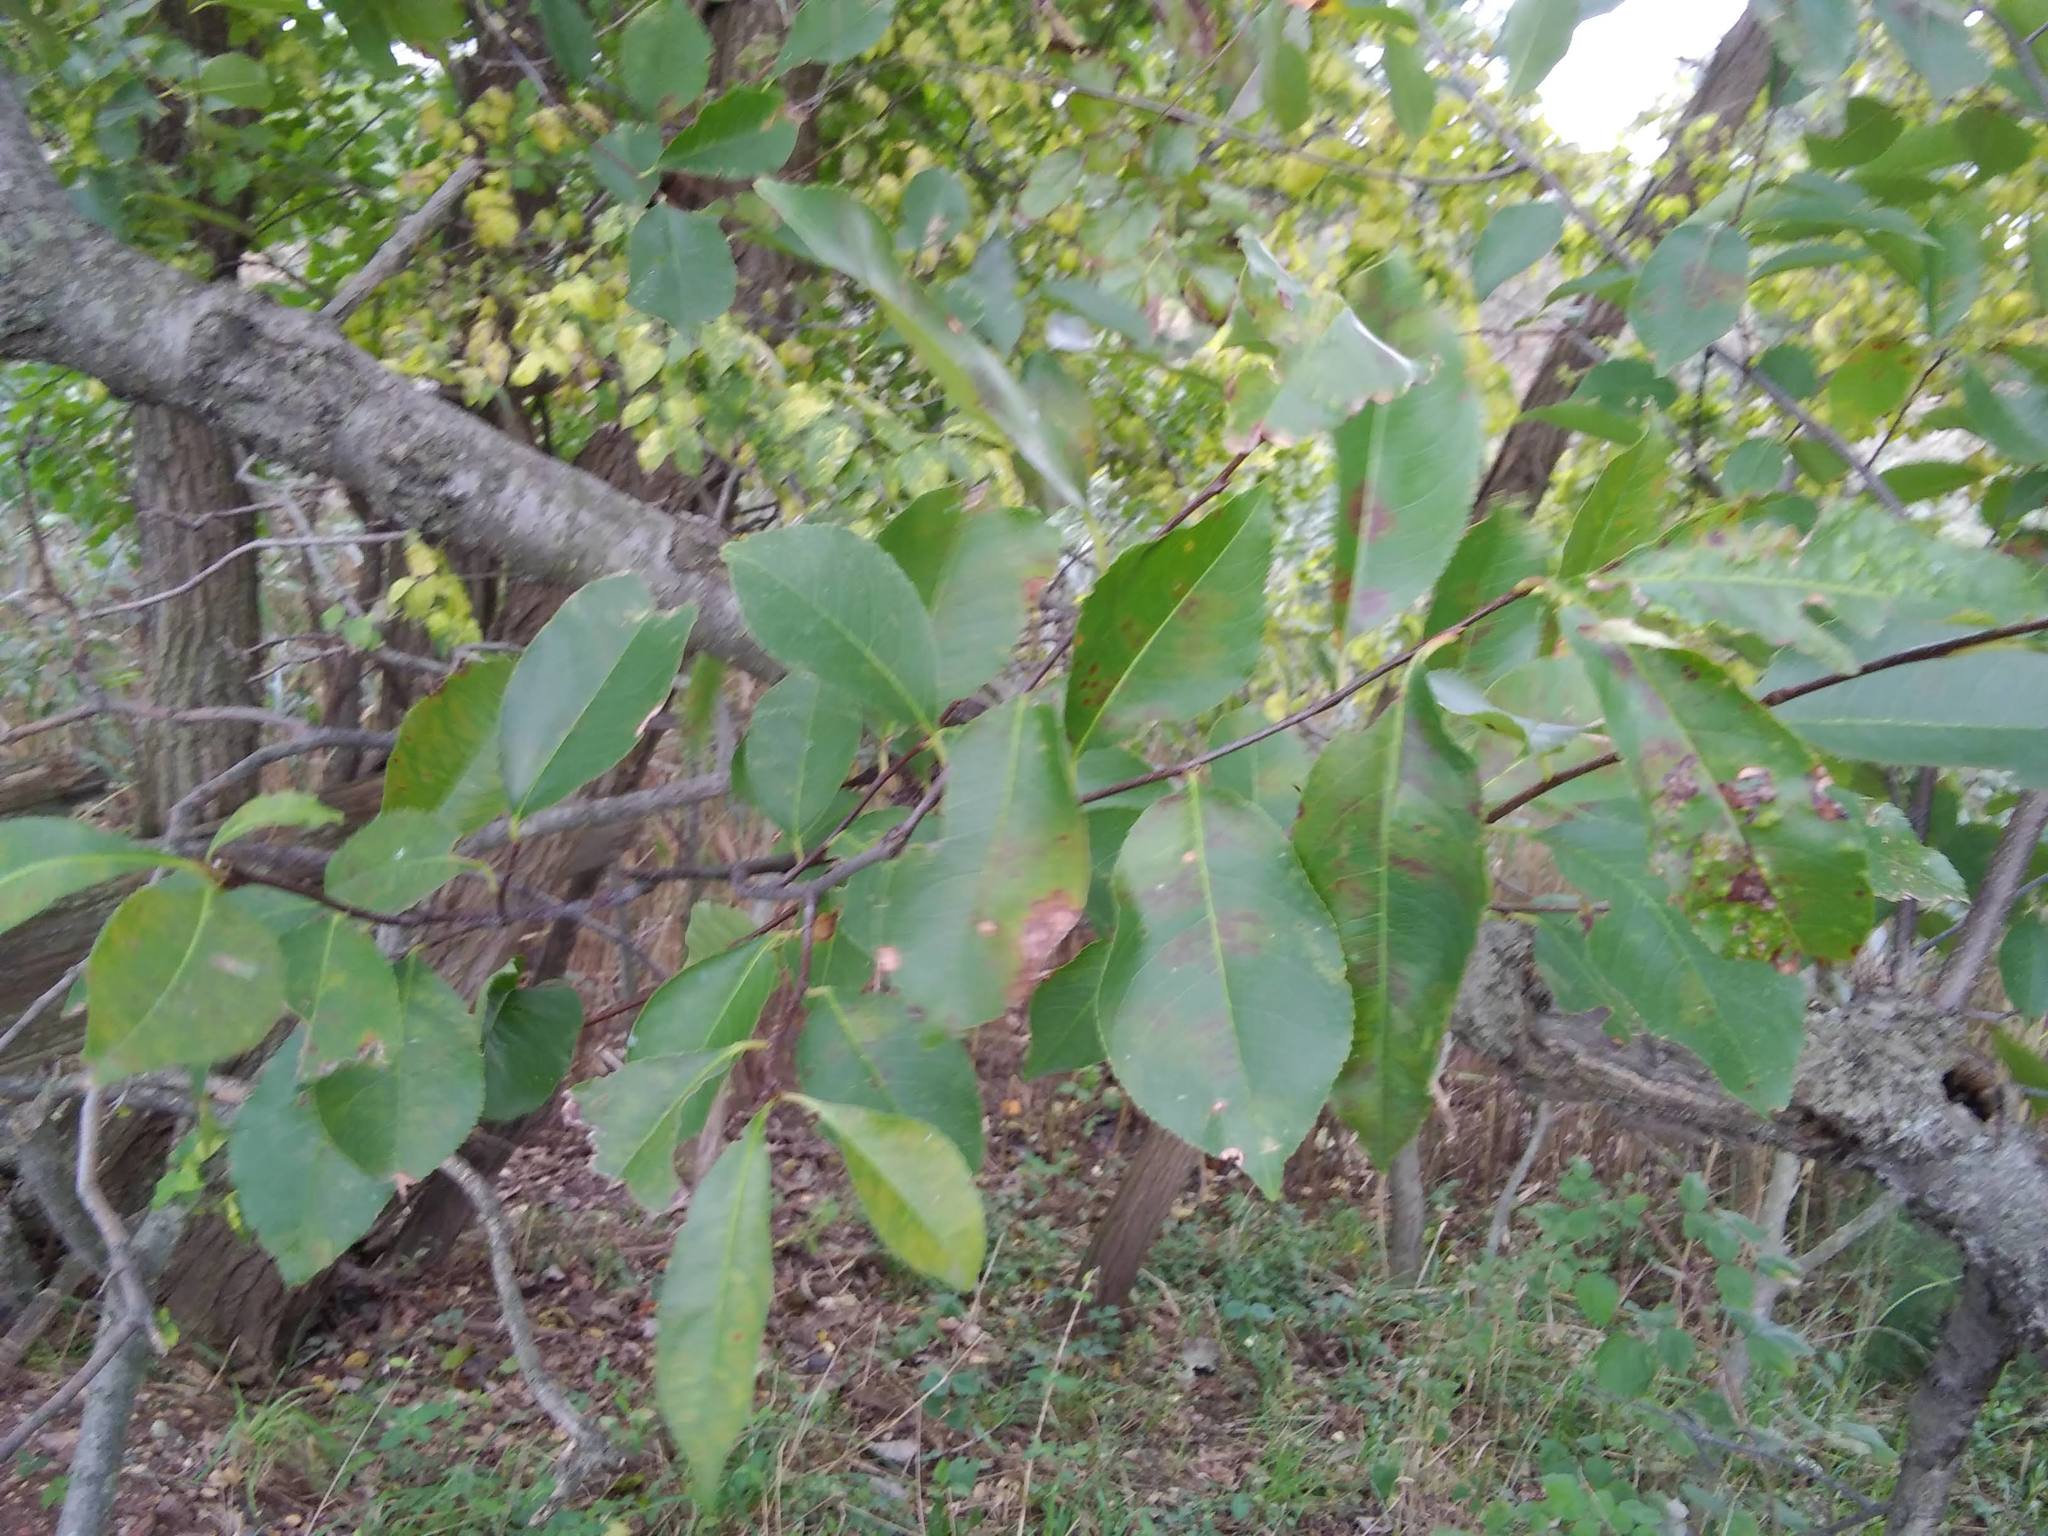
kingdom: Plantae
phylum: Tracheophyta
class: Magnoliopsida
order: Rosales
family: Rosaceae
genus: Prunus
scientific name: Prunus serotina
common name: Black cherry
